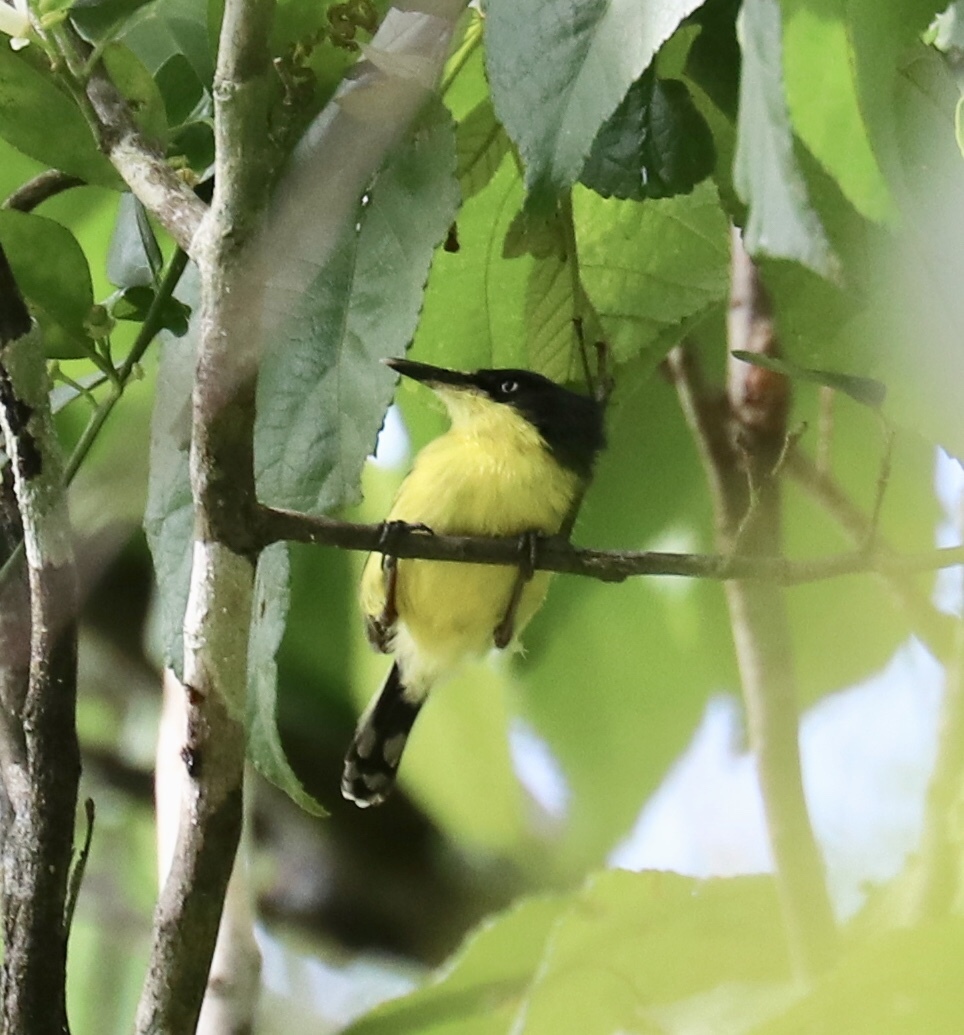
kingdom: Animalia
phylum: Chordata
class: Aves
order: Passeriformes
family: Tyrannidae
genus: Todirostrum
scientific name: Todirostrum cinereum
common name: Common tody-flycatcher
